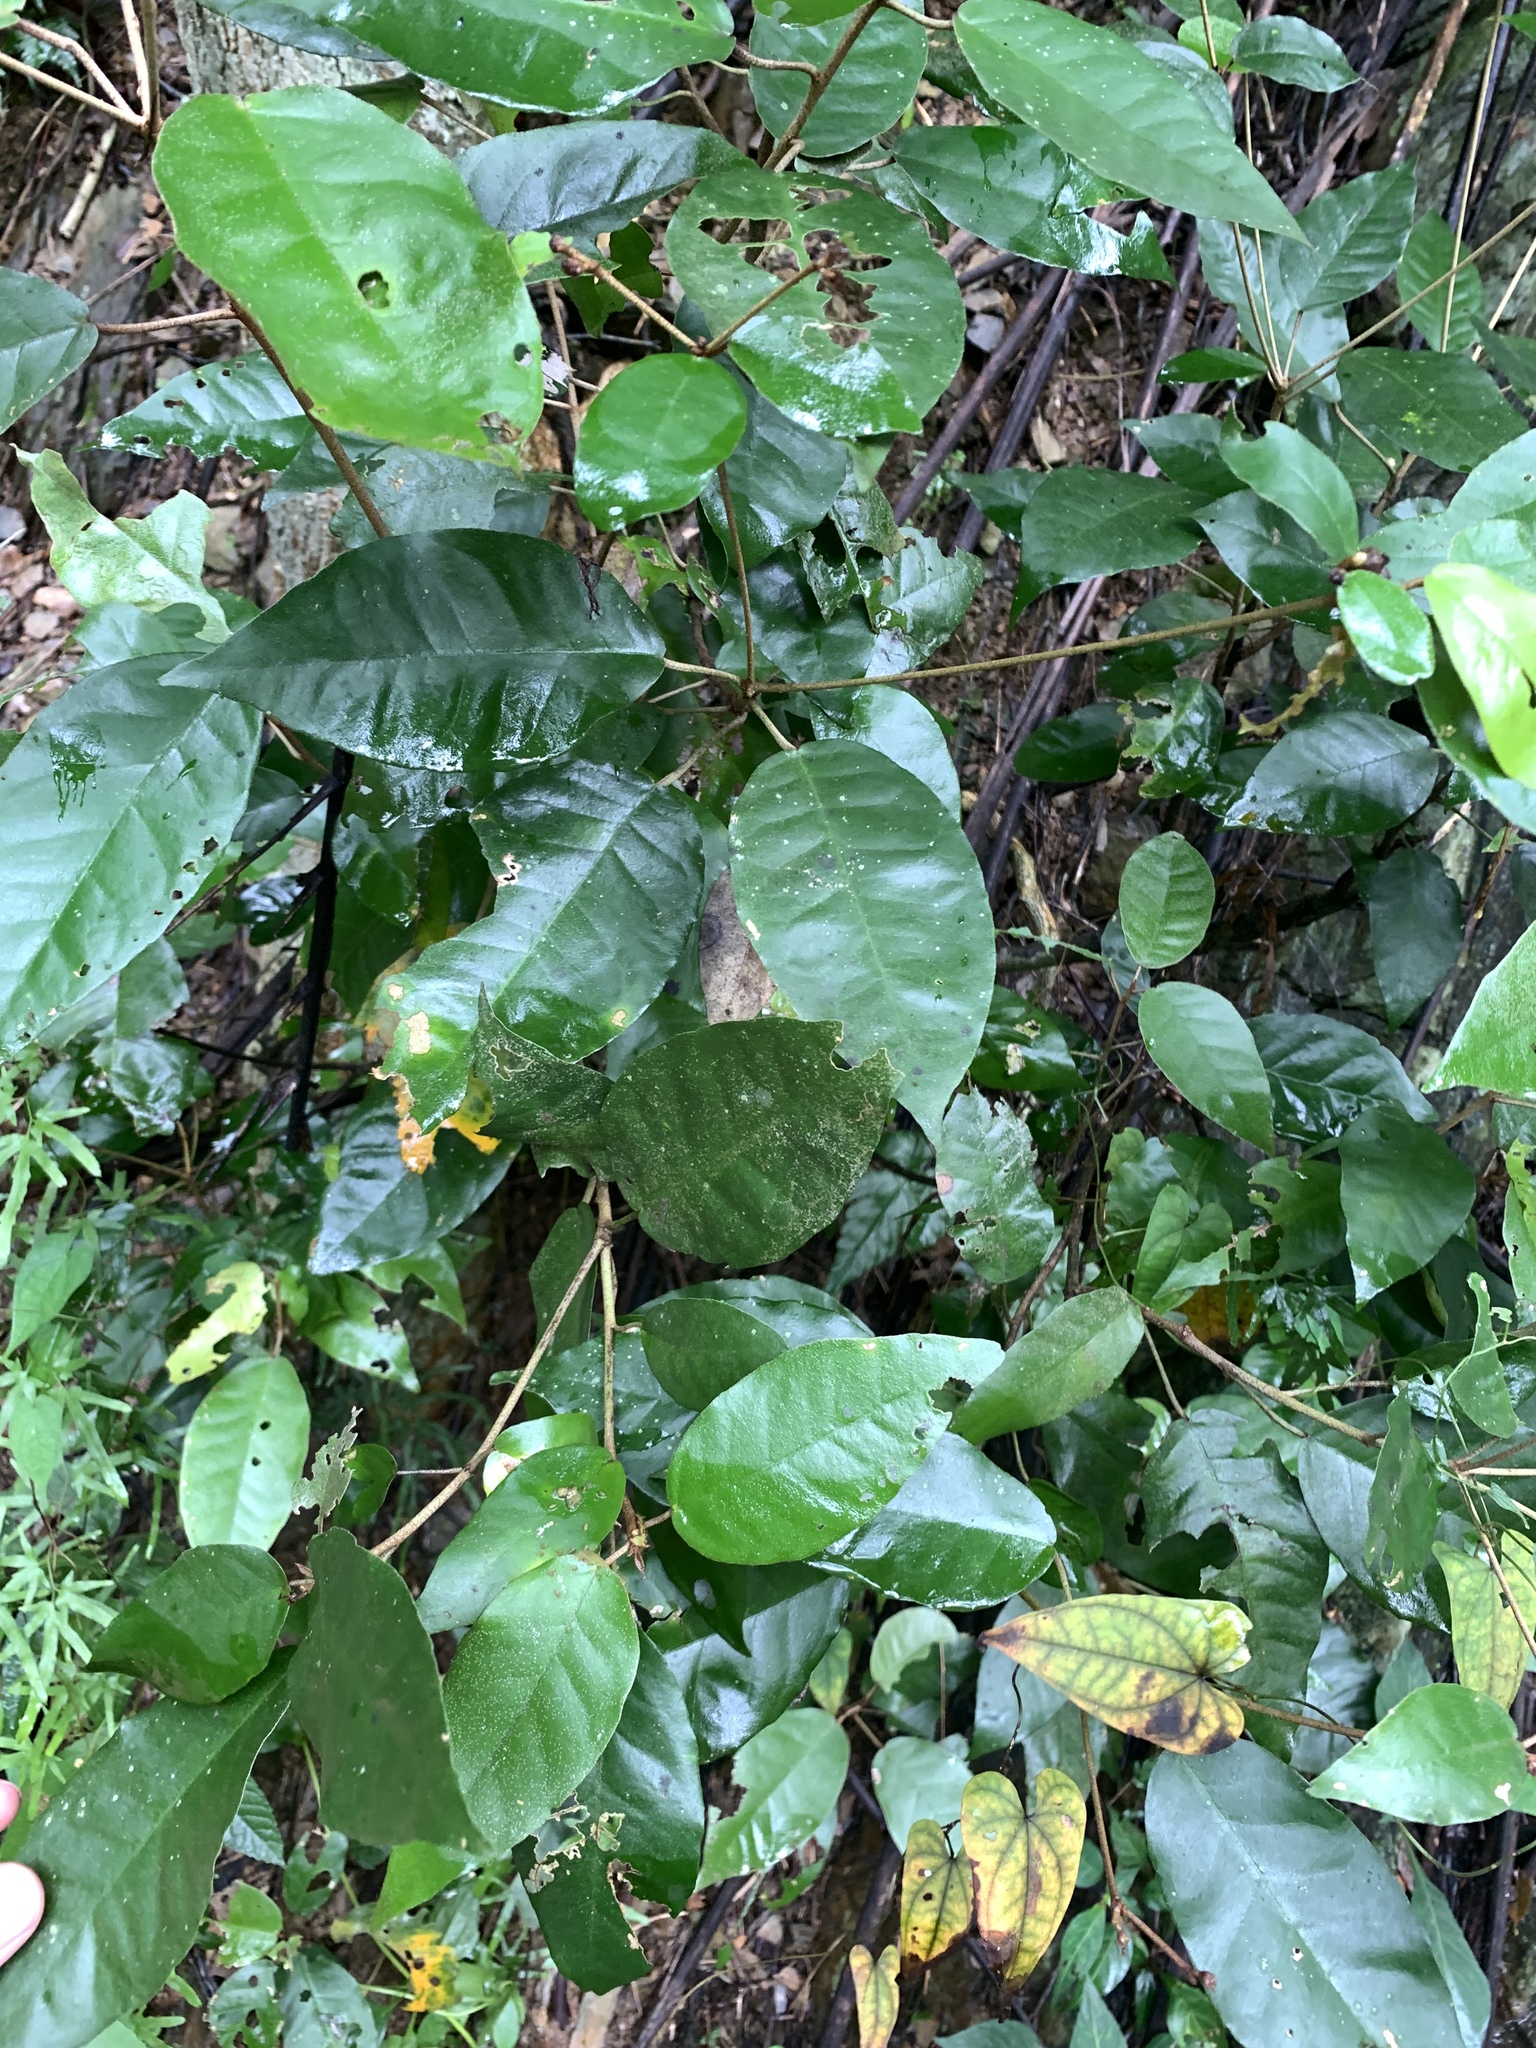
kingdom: Plantae
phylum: Tracheophyta
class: Magnoliopsida
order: Malpighiales
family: Euphorbiaceae
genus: Croton
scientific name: Croton cascarilloides
